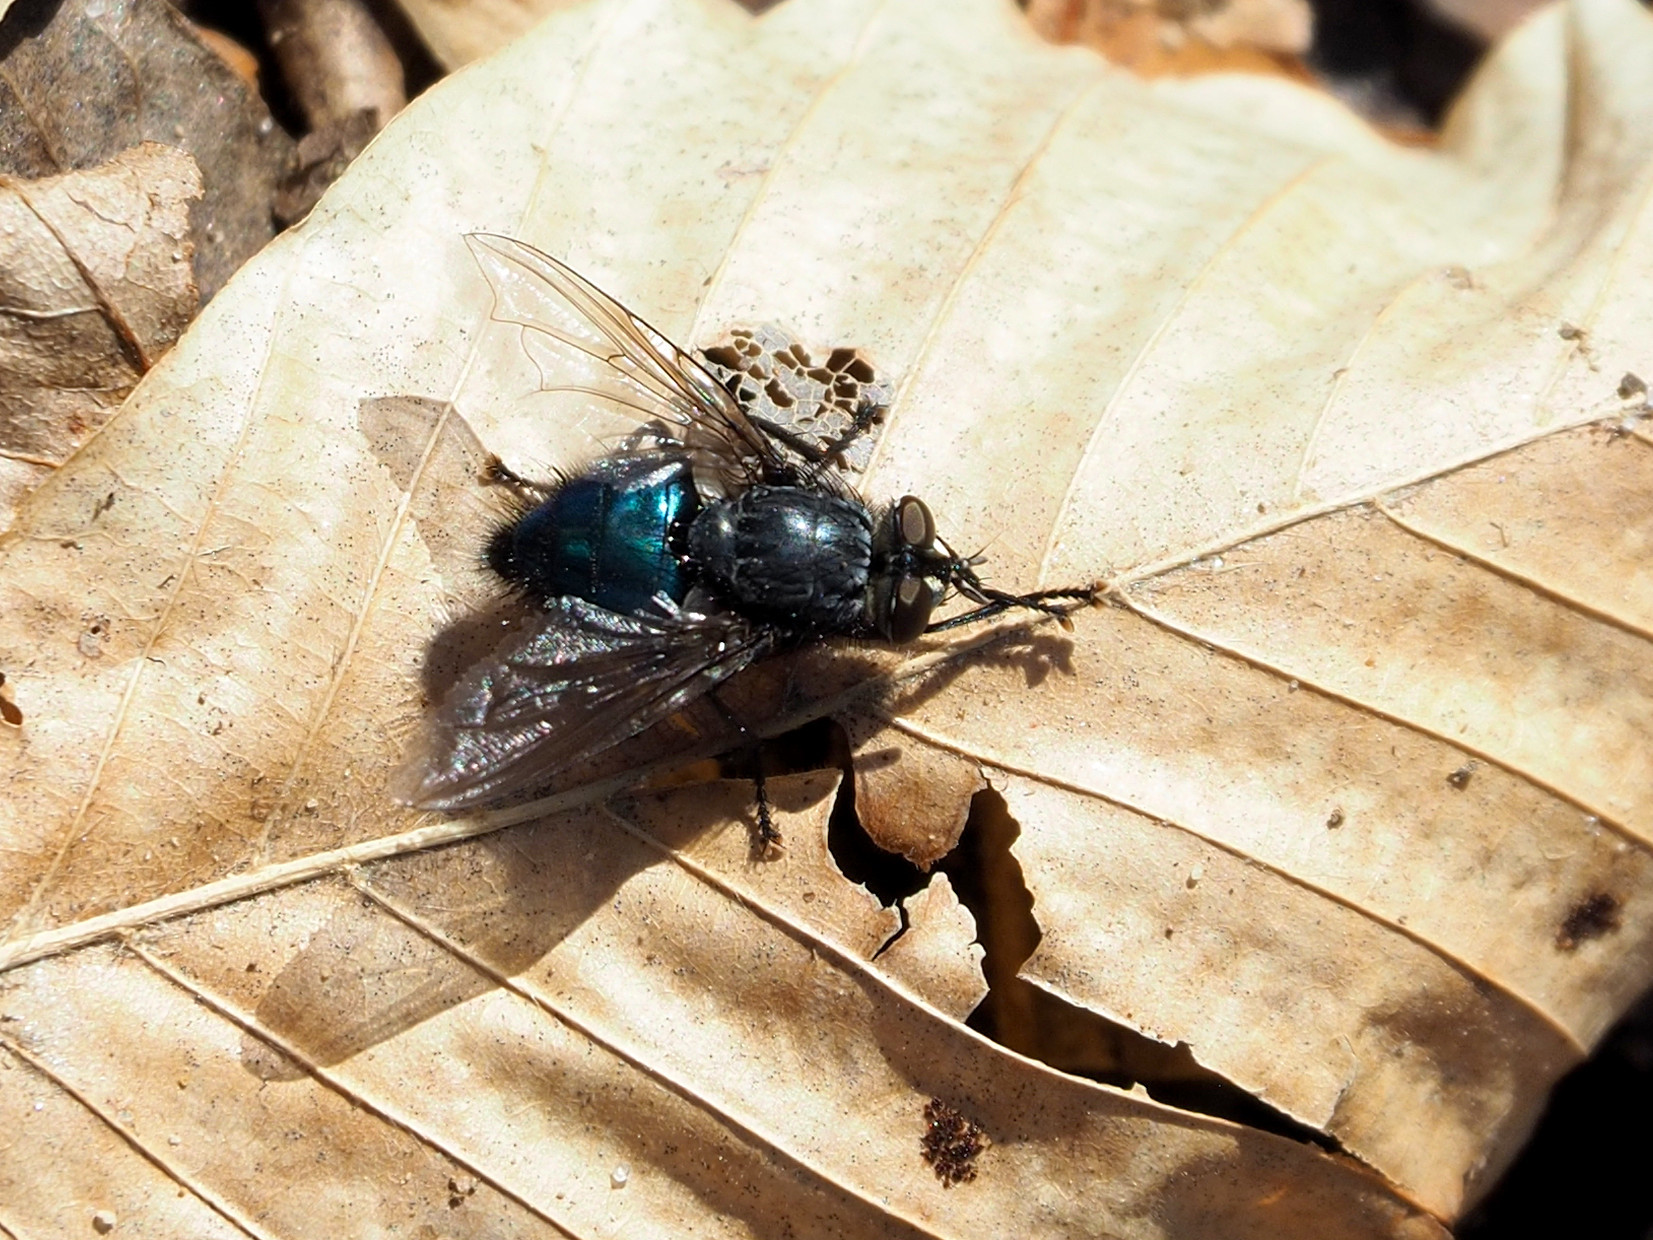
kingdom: Animalia
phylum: Arthropoda
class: Insecta
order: Diptera
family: Calliphoridae
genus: Cynomya
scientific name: Cynomya cadaverina
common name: Shiny blue bottle fly
